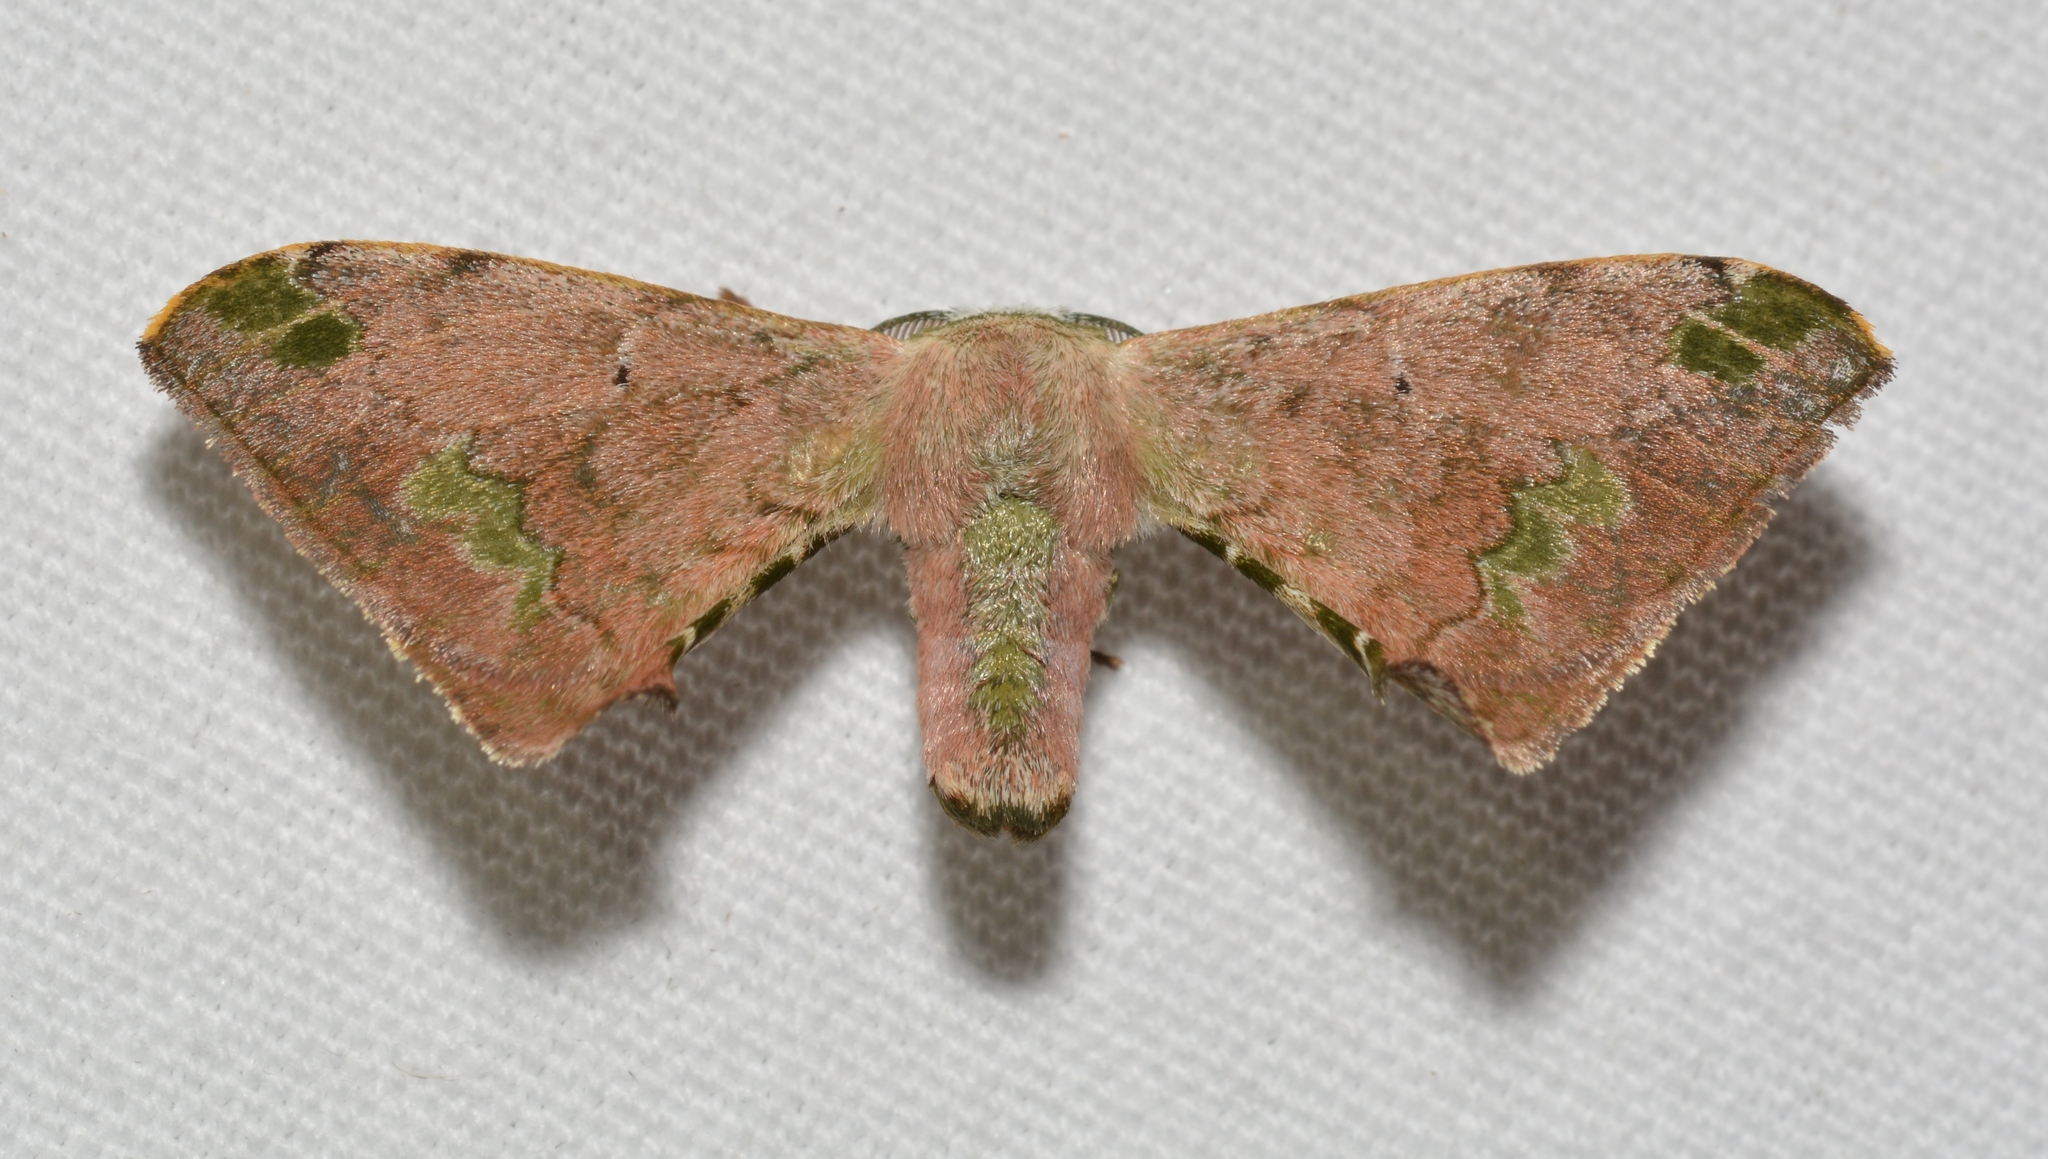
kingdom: Animalia
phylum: Arthropoda
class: Insecta
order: Lepidoptera
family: Bombycidae
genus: Anticla
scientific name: Anticla antica
